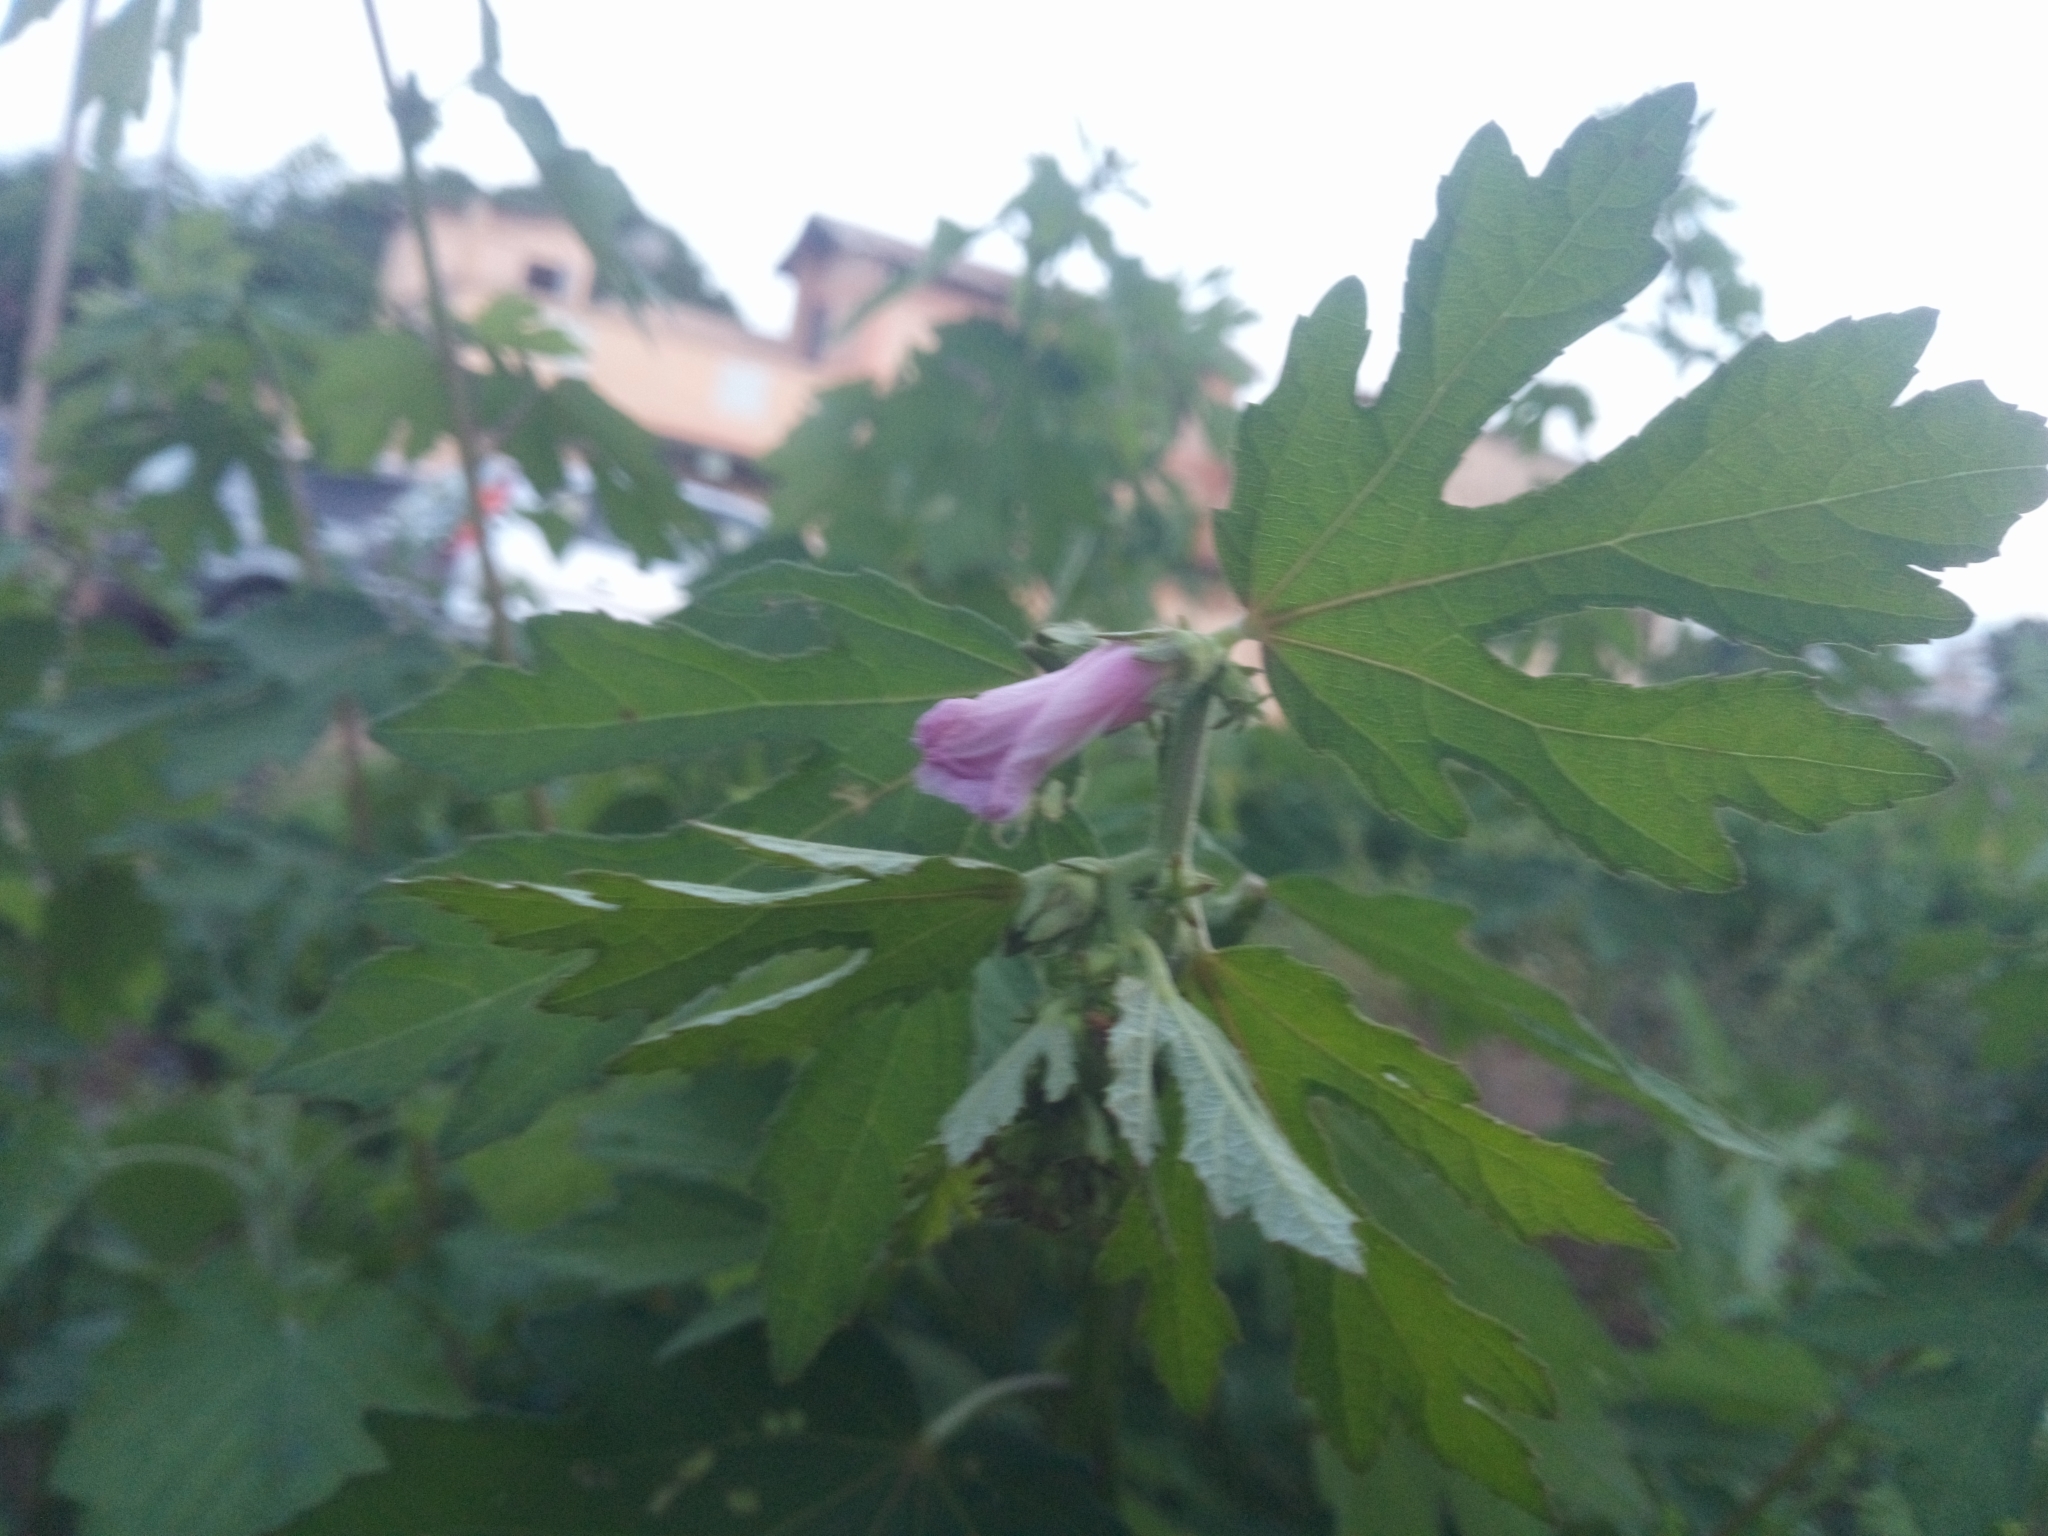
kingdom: Plantae
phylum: Tracheophyta
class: Magnoliopsida
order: Malvales
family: Malvaceae
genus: Urena
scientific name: Urena lobata
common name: Caesarweed
